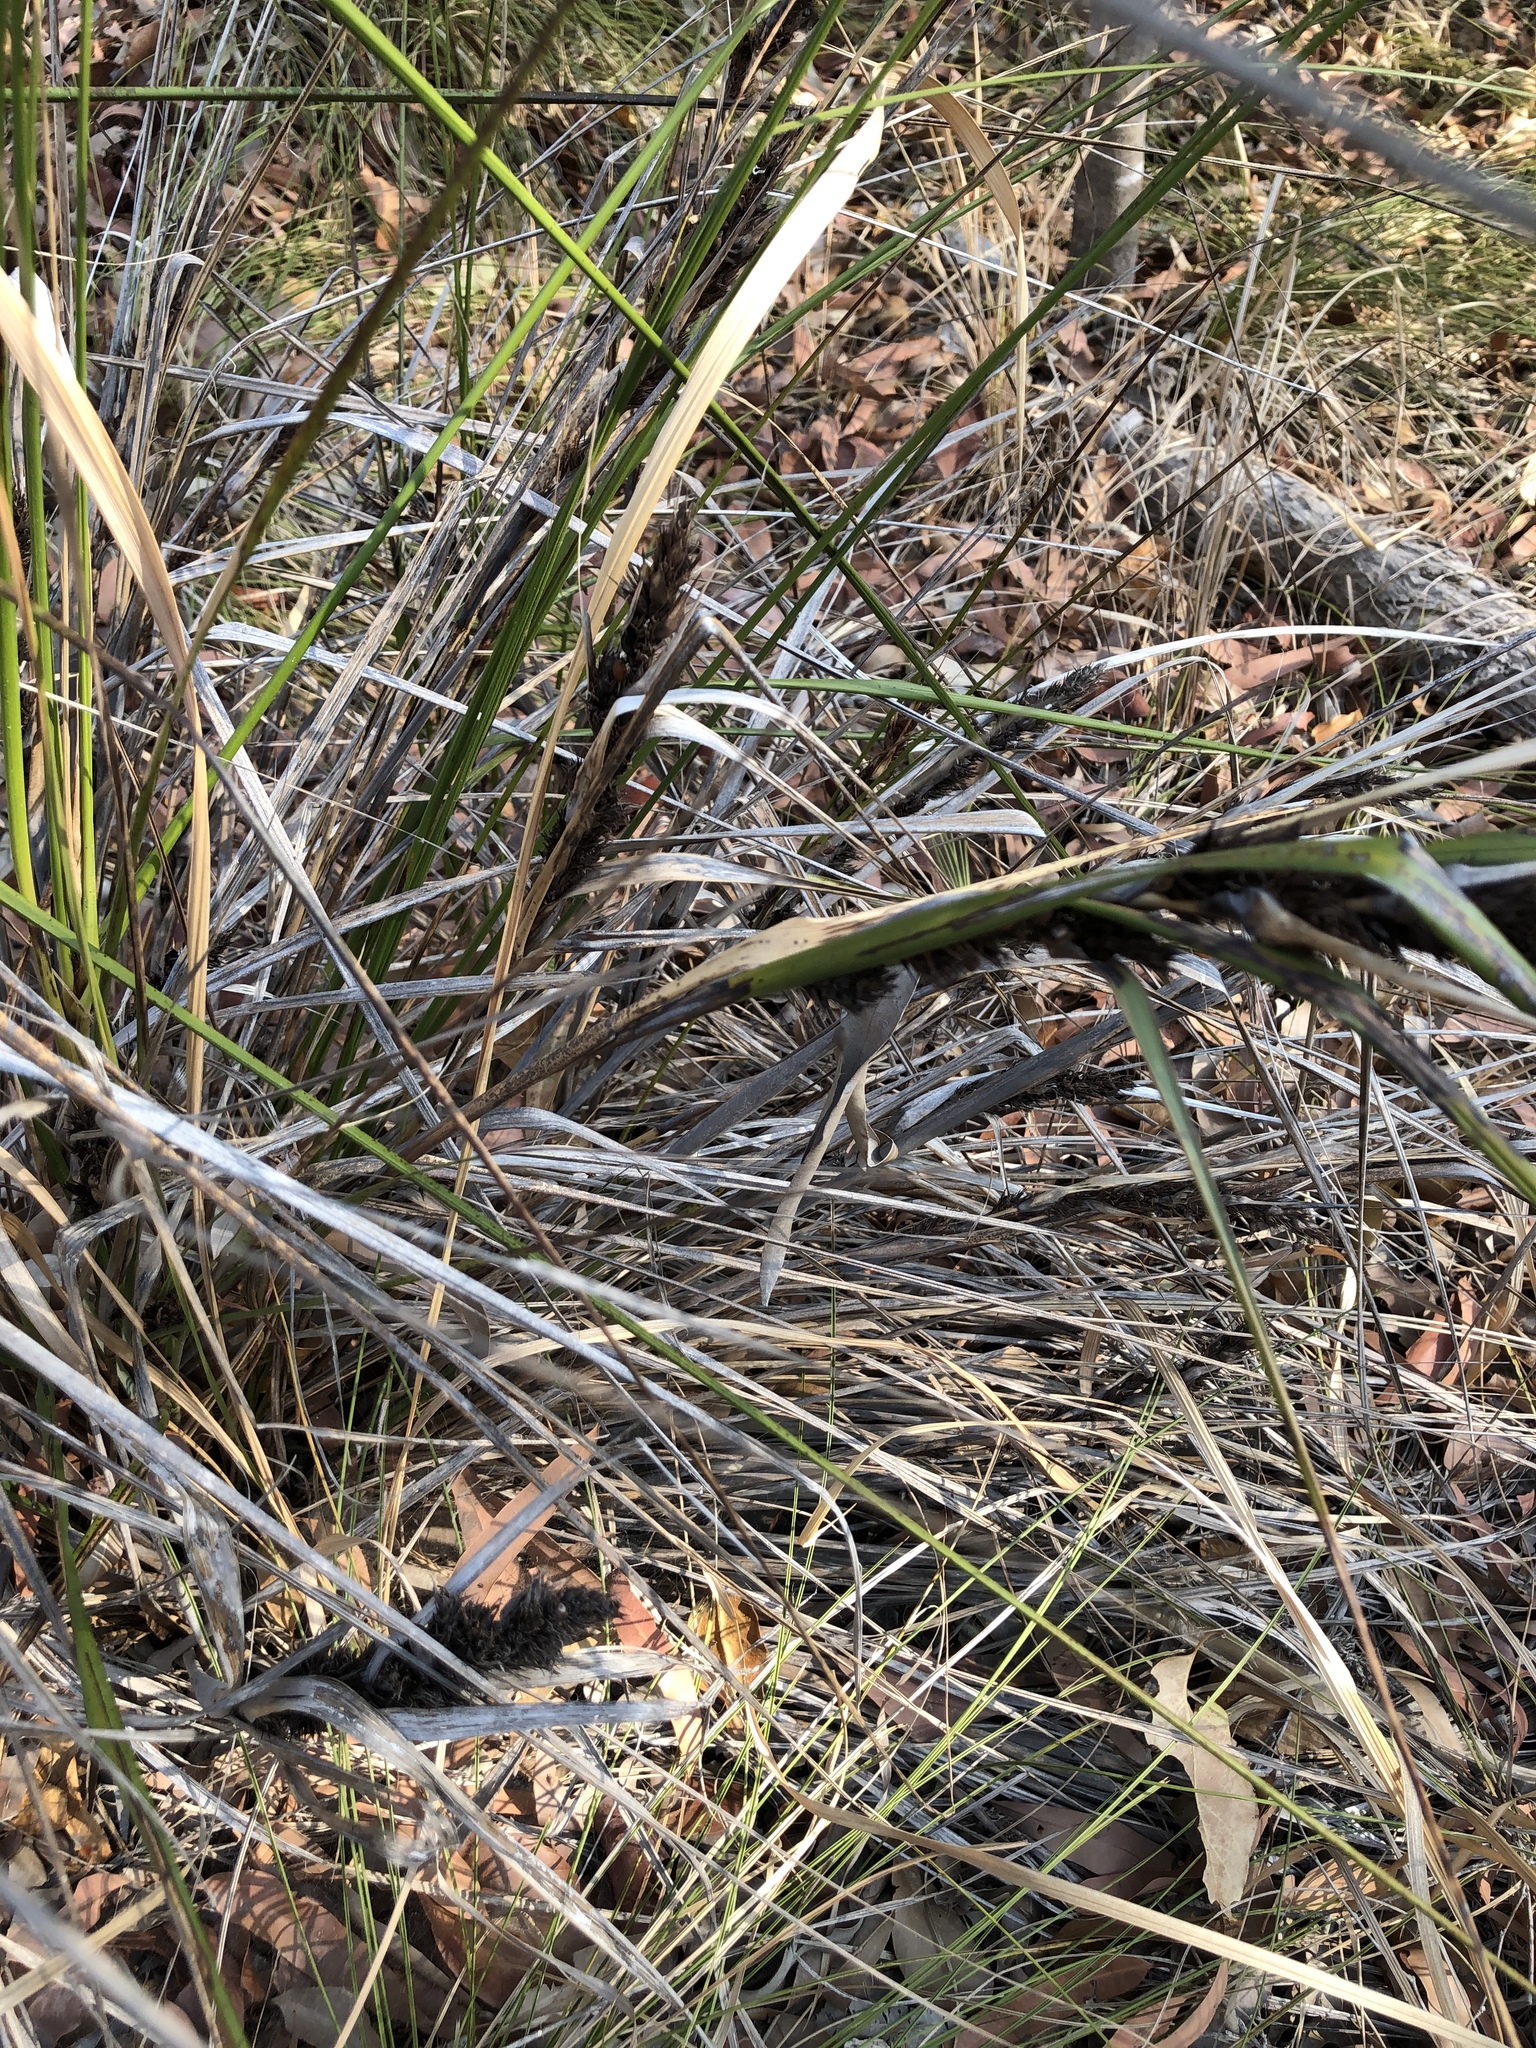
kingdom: Plantae
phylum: Tracheophyta
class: Liliopsida
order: Poales
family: Cyperaceae
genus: Gahnia
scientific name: Gahnia aspera
